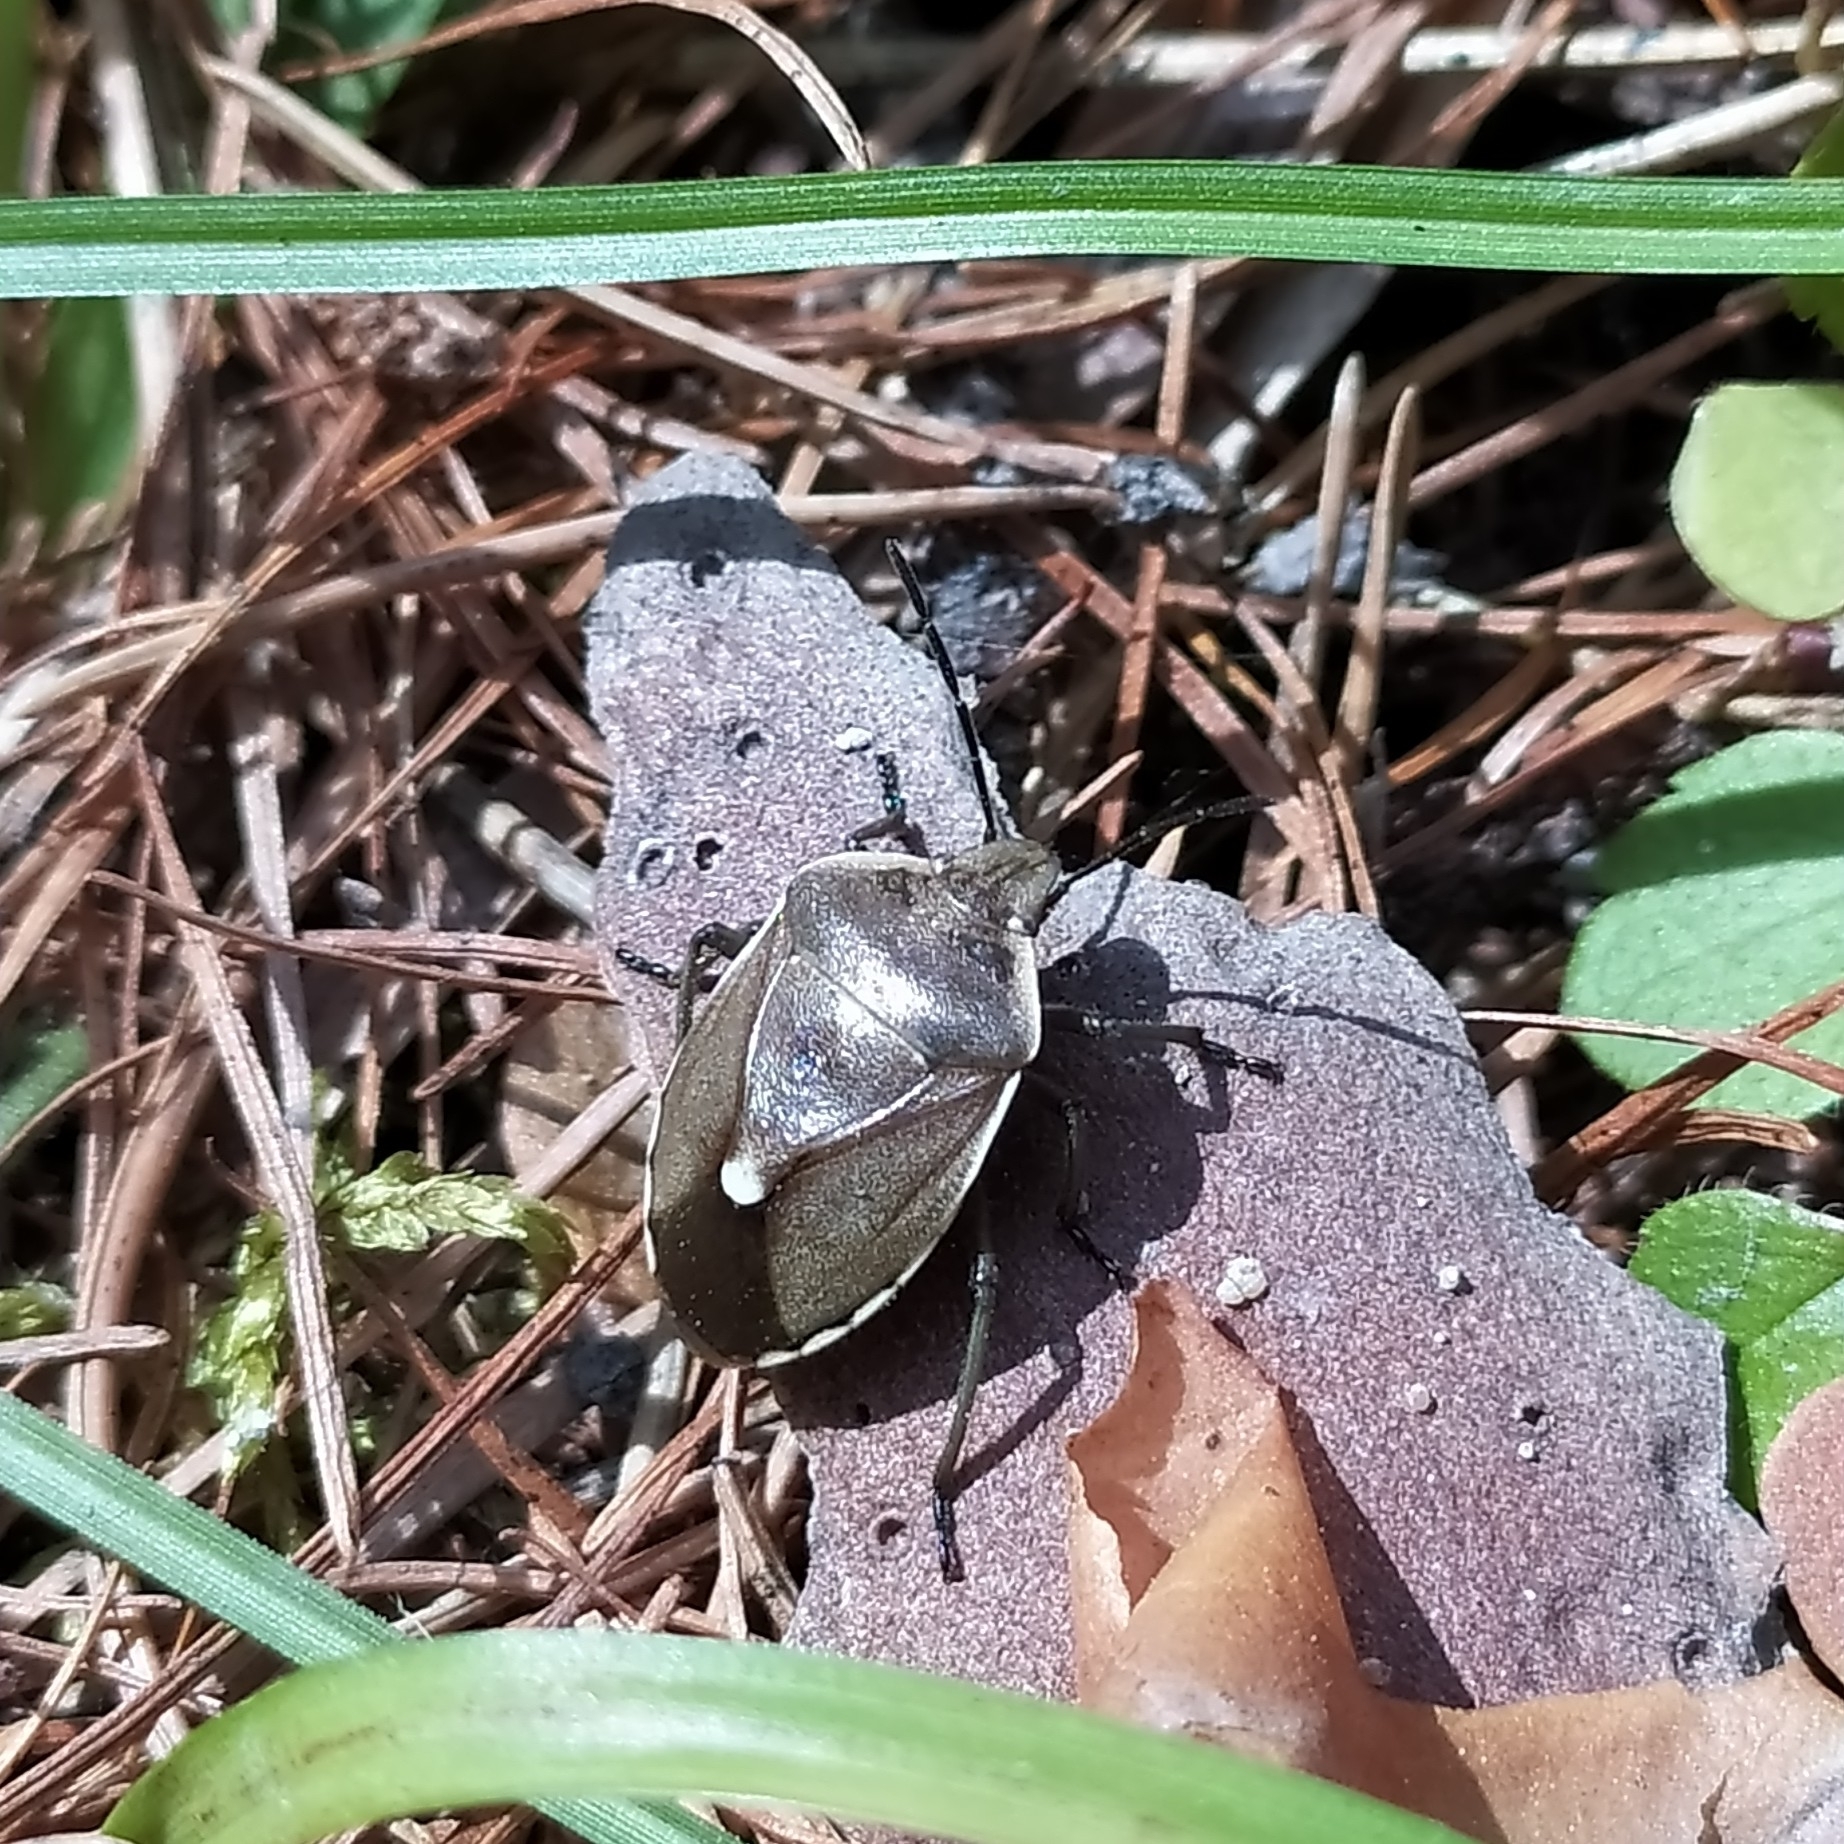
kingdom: Animalia
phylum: Arthropoda
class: Insecta
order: Hemiptera
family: Pentatomidae
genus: Chlorochroa
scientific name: Chlorochroa pinicola
